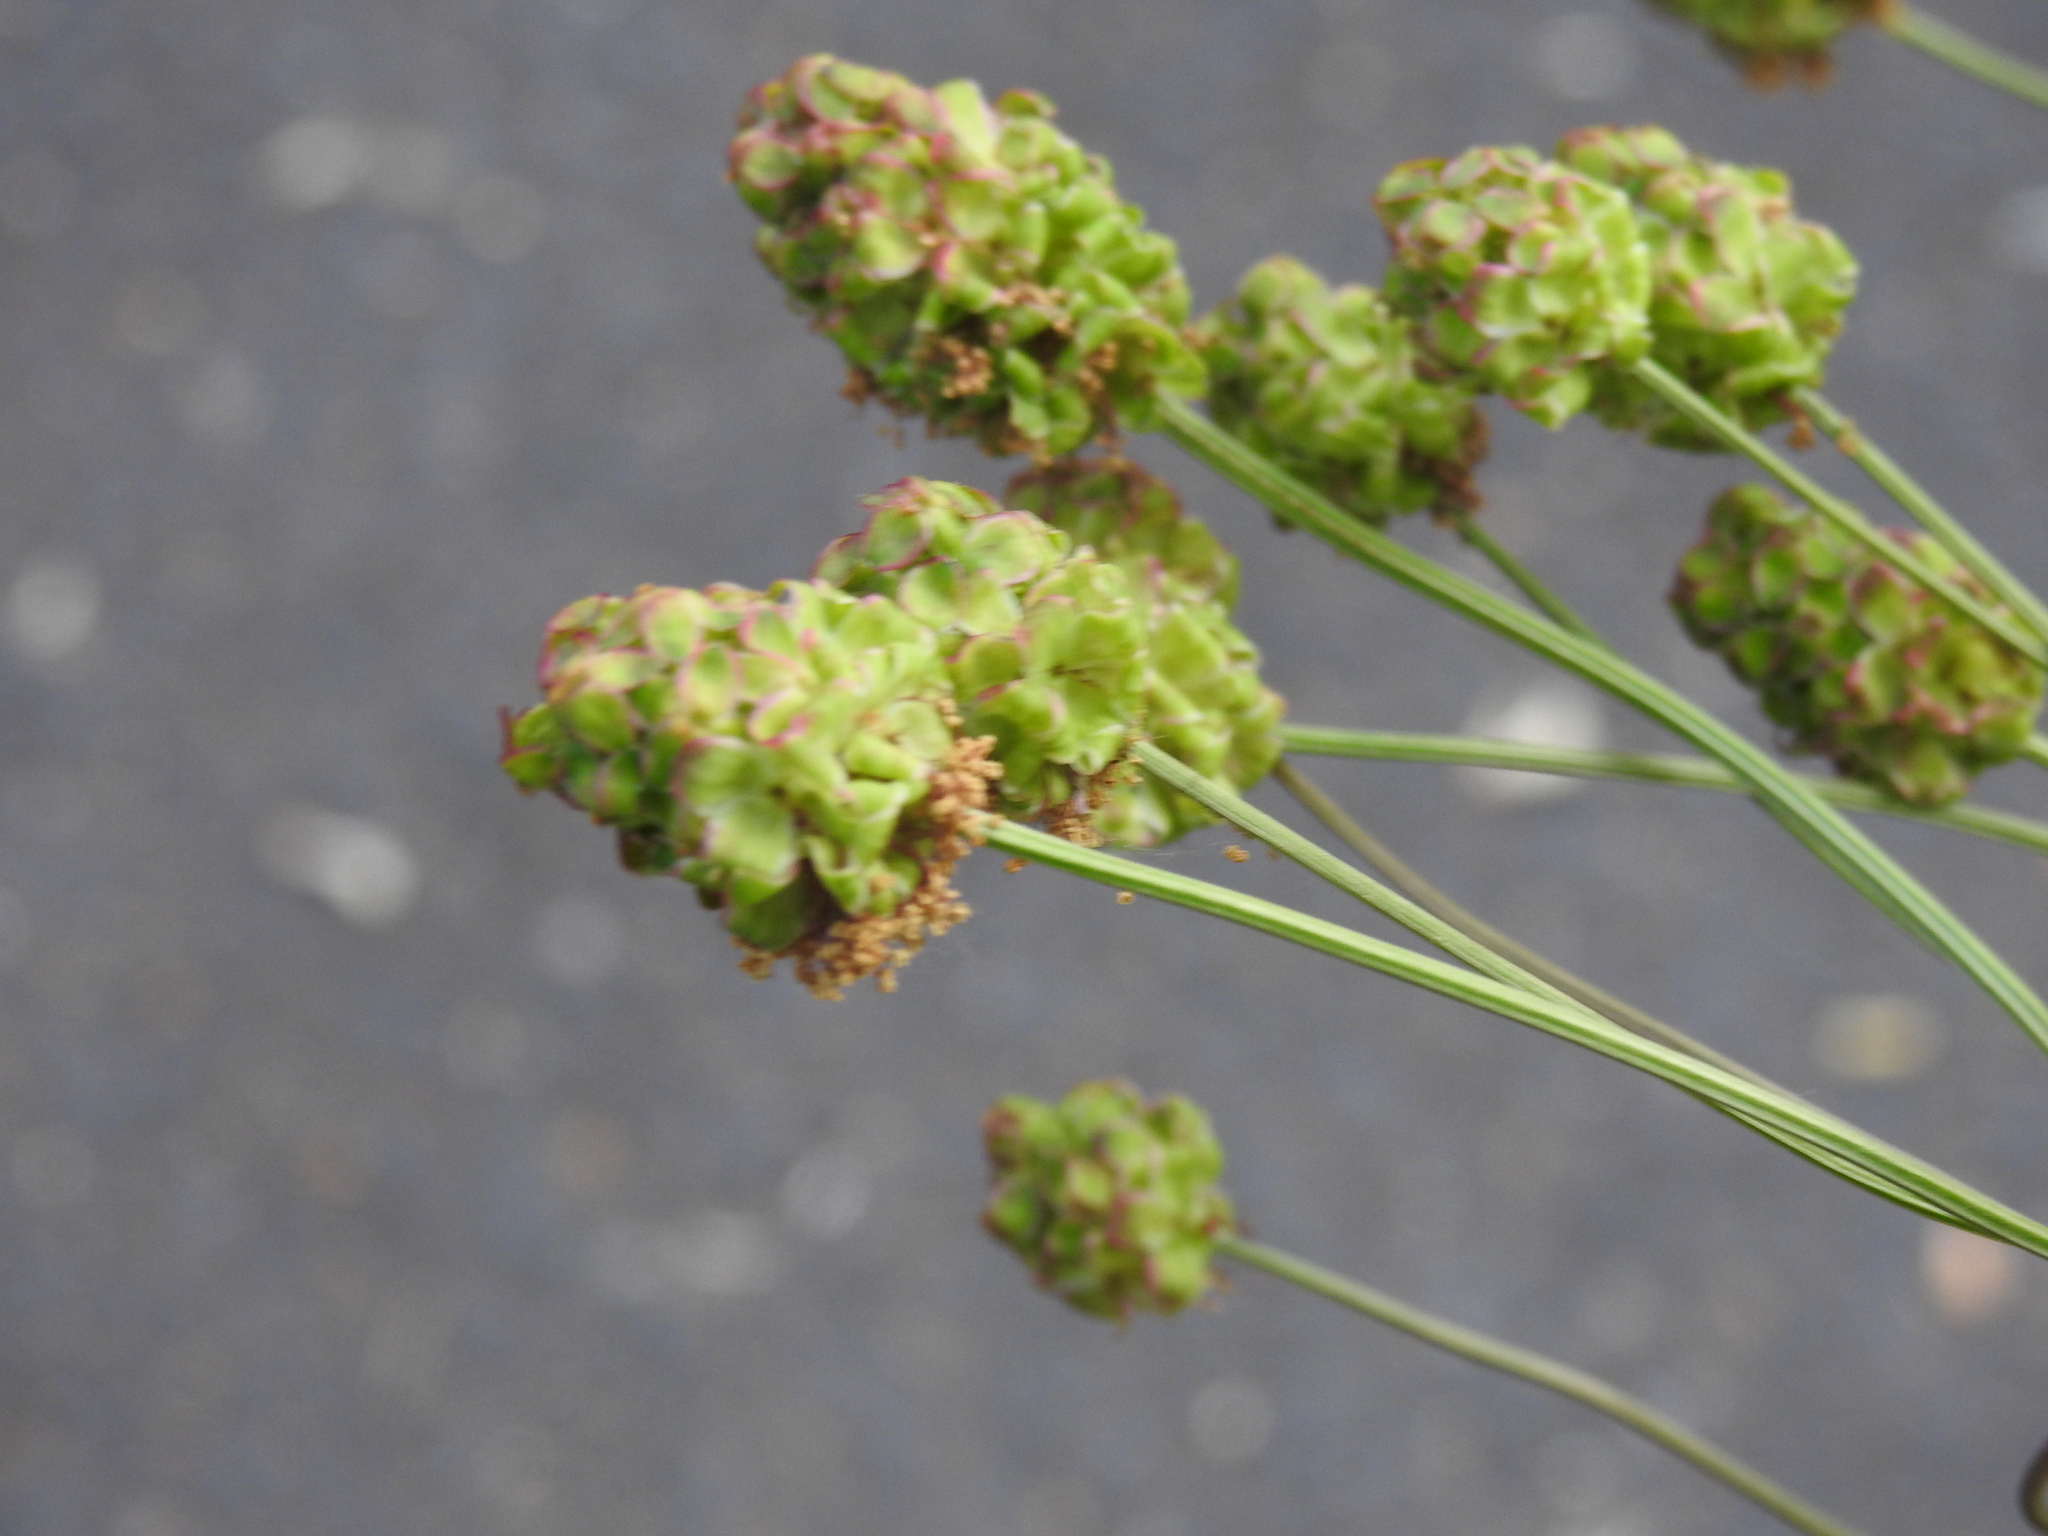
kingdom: Plantae
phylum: Tracheophyta
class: Magnoliopsida
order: Rosales
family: Rosaceae
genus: Poterium
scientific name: Poterium sanguisorba
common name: Salad burnet
